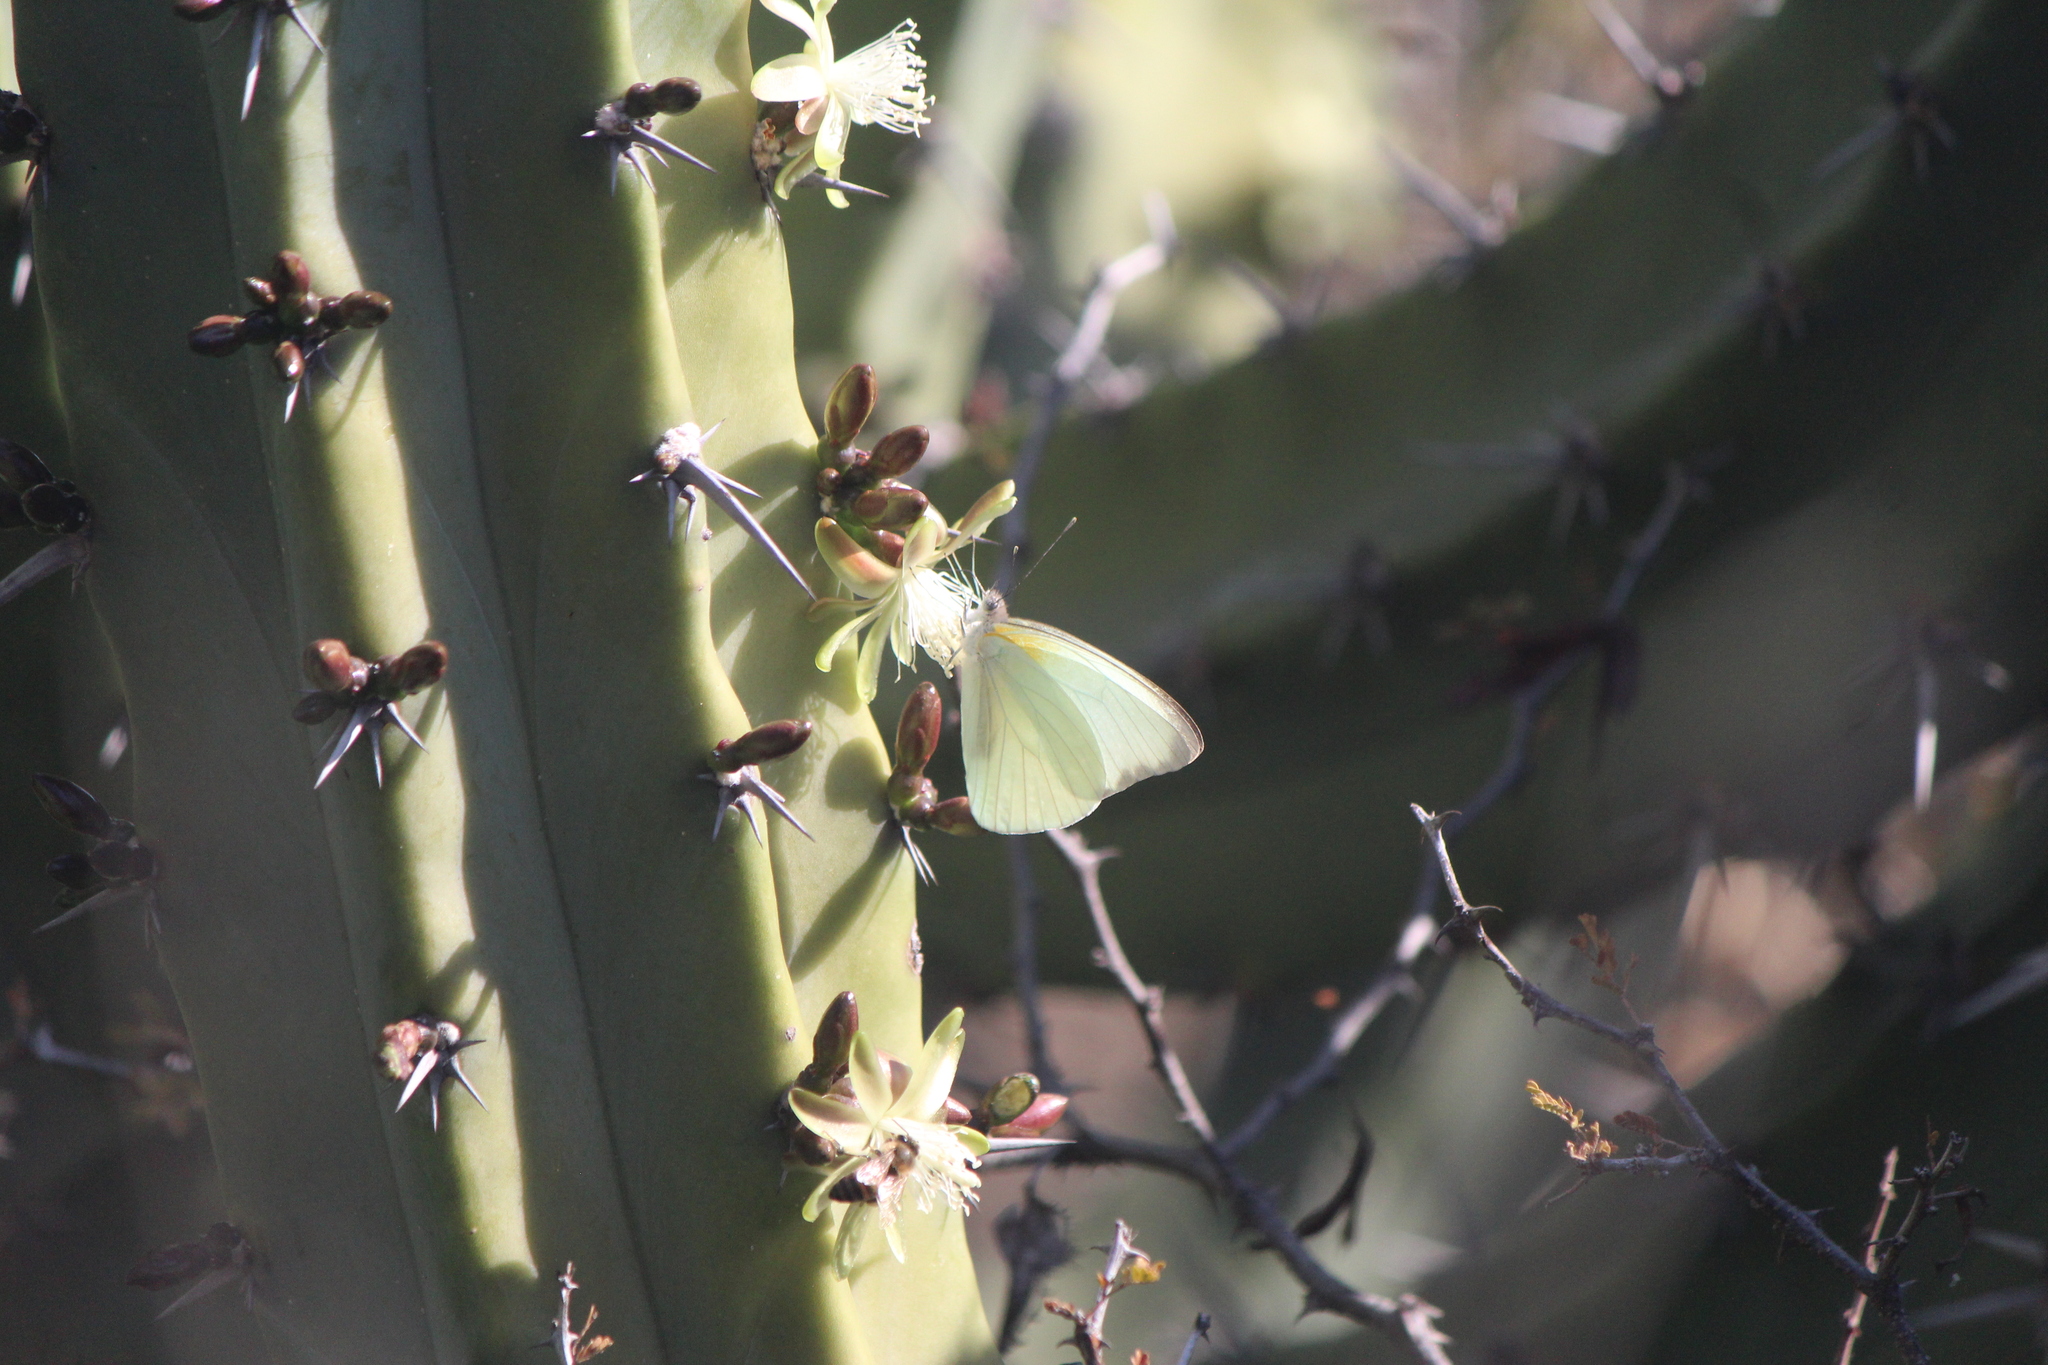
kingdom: Animalia
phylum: Arthropoda
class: Insecta
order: Lepidoptera
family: Pieridae
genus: Glutophrissa
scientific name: Glutophrissa drusilla
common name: Florida white
